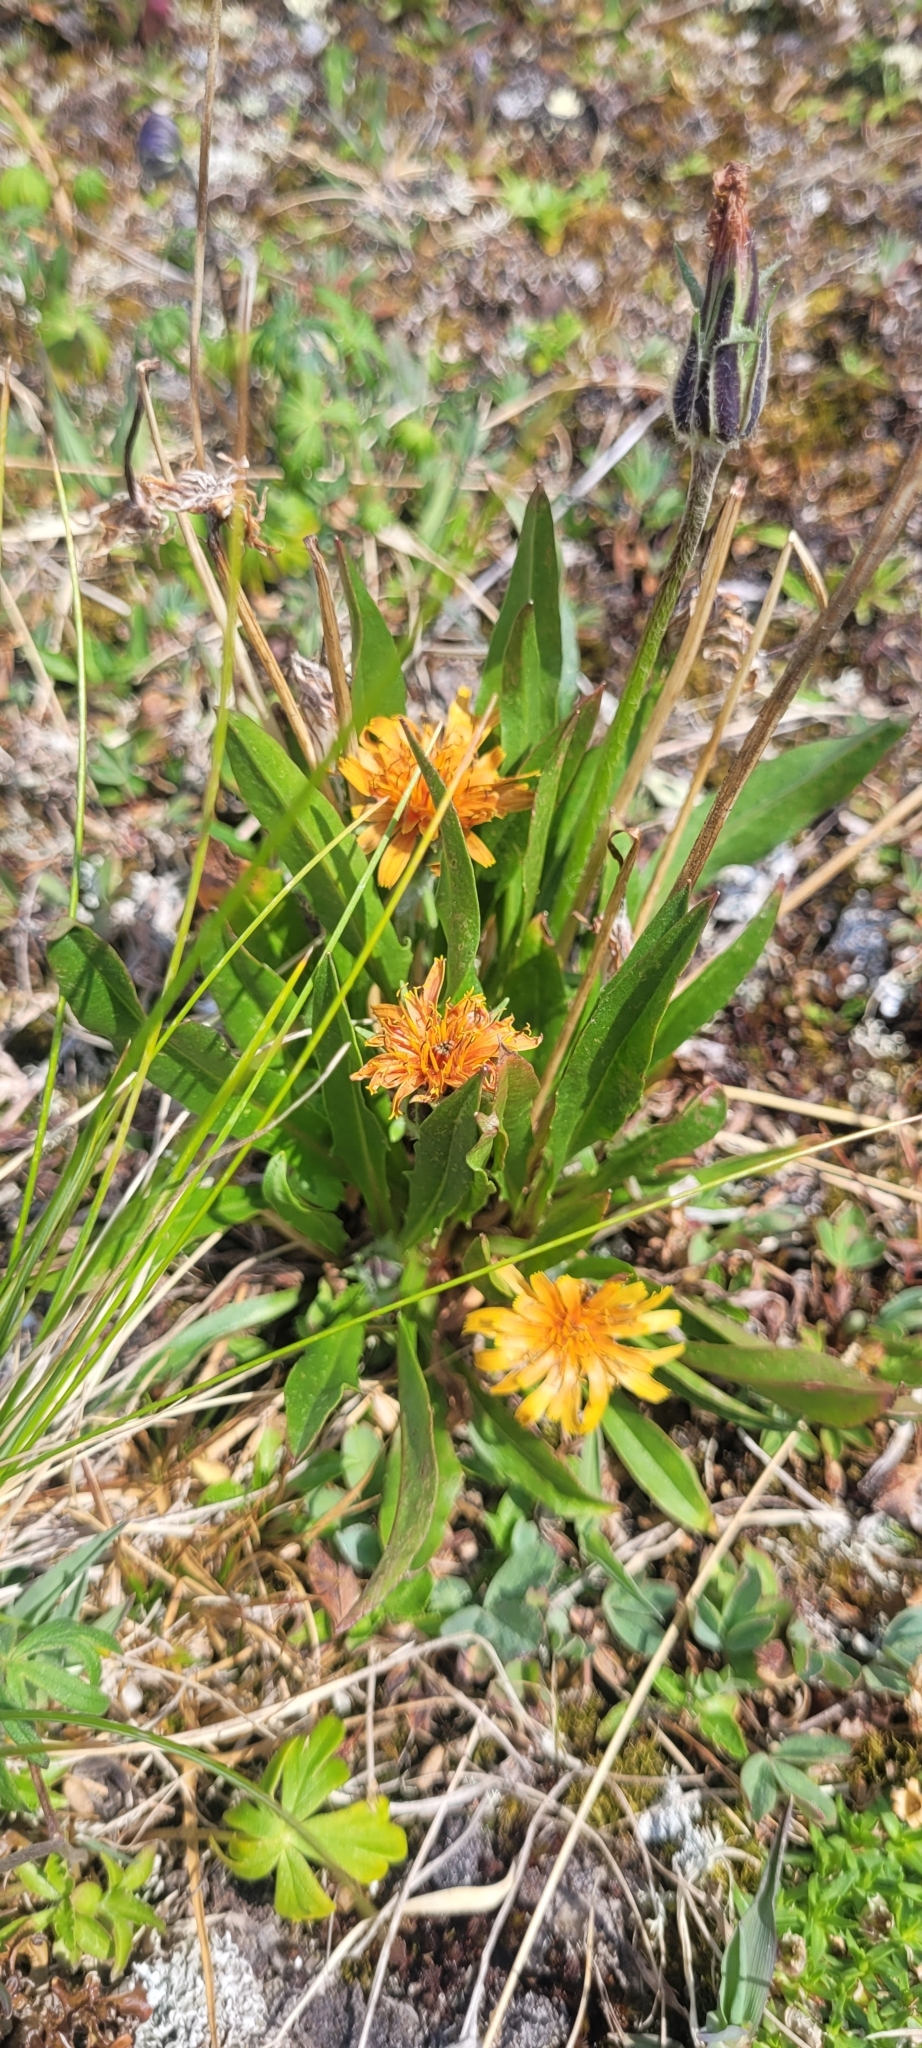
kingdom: Plantae
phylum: Tracheophyta
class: Magnoliopsida
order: Asterales
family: Asteraceae
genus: Agoseris
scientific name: Agoseris aurantiaca
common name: Mountain agoseris
